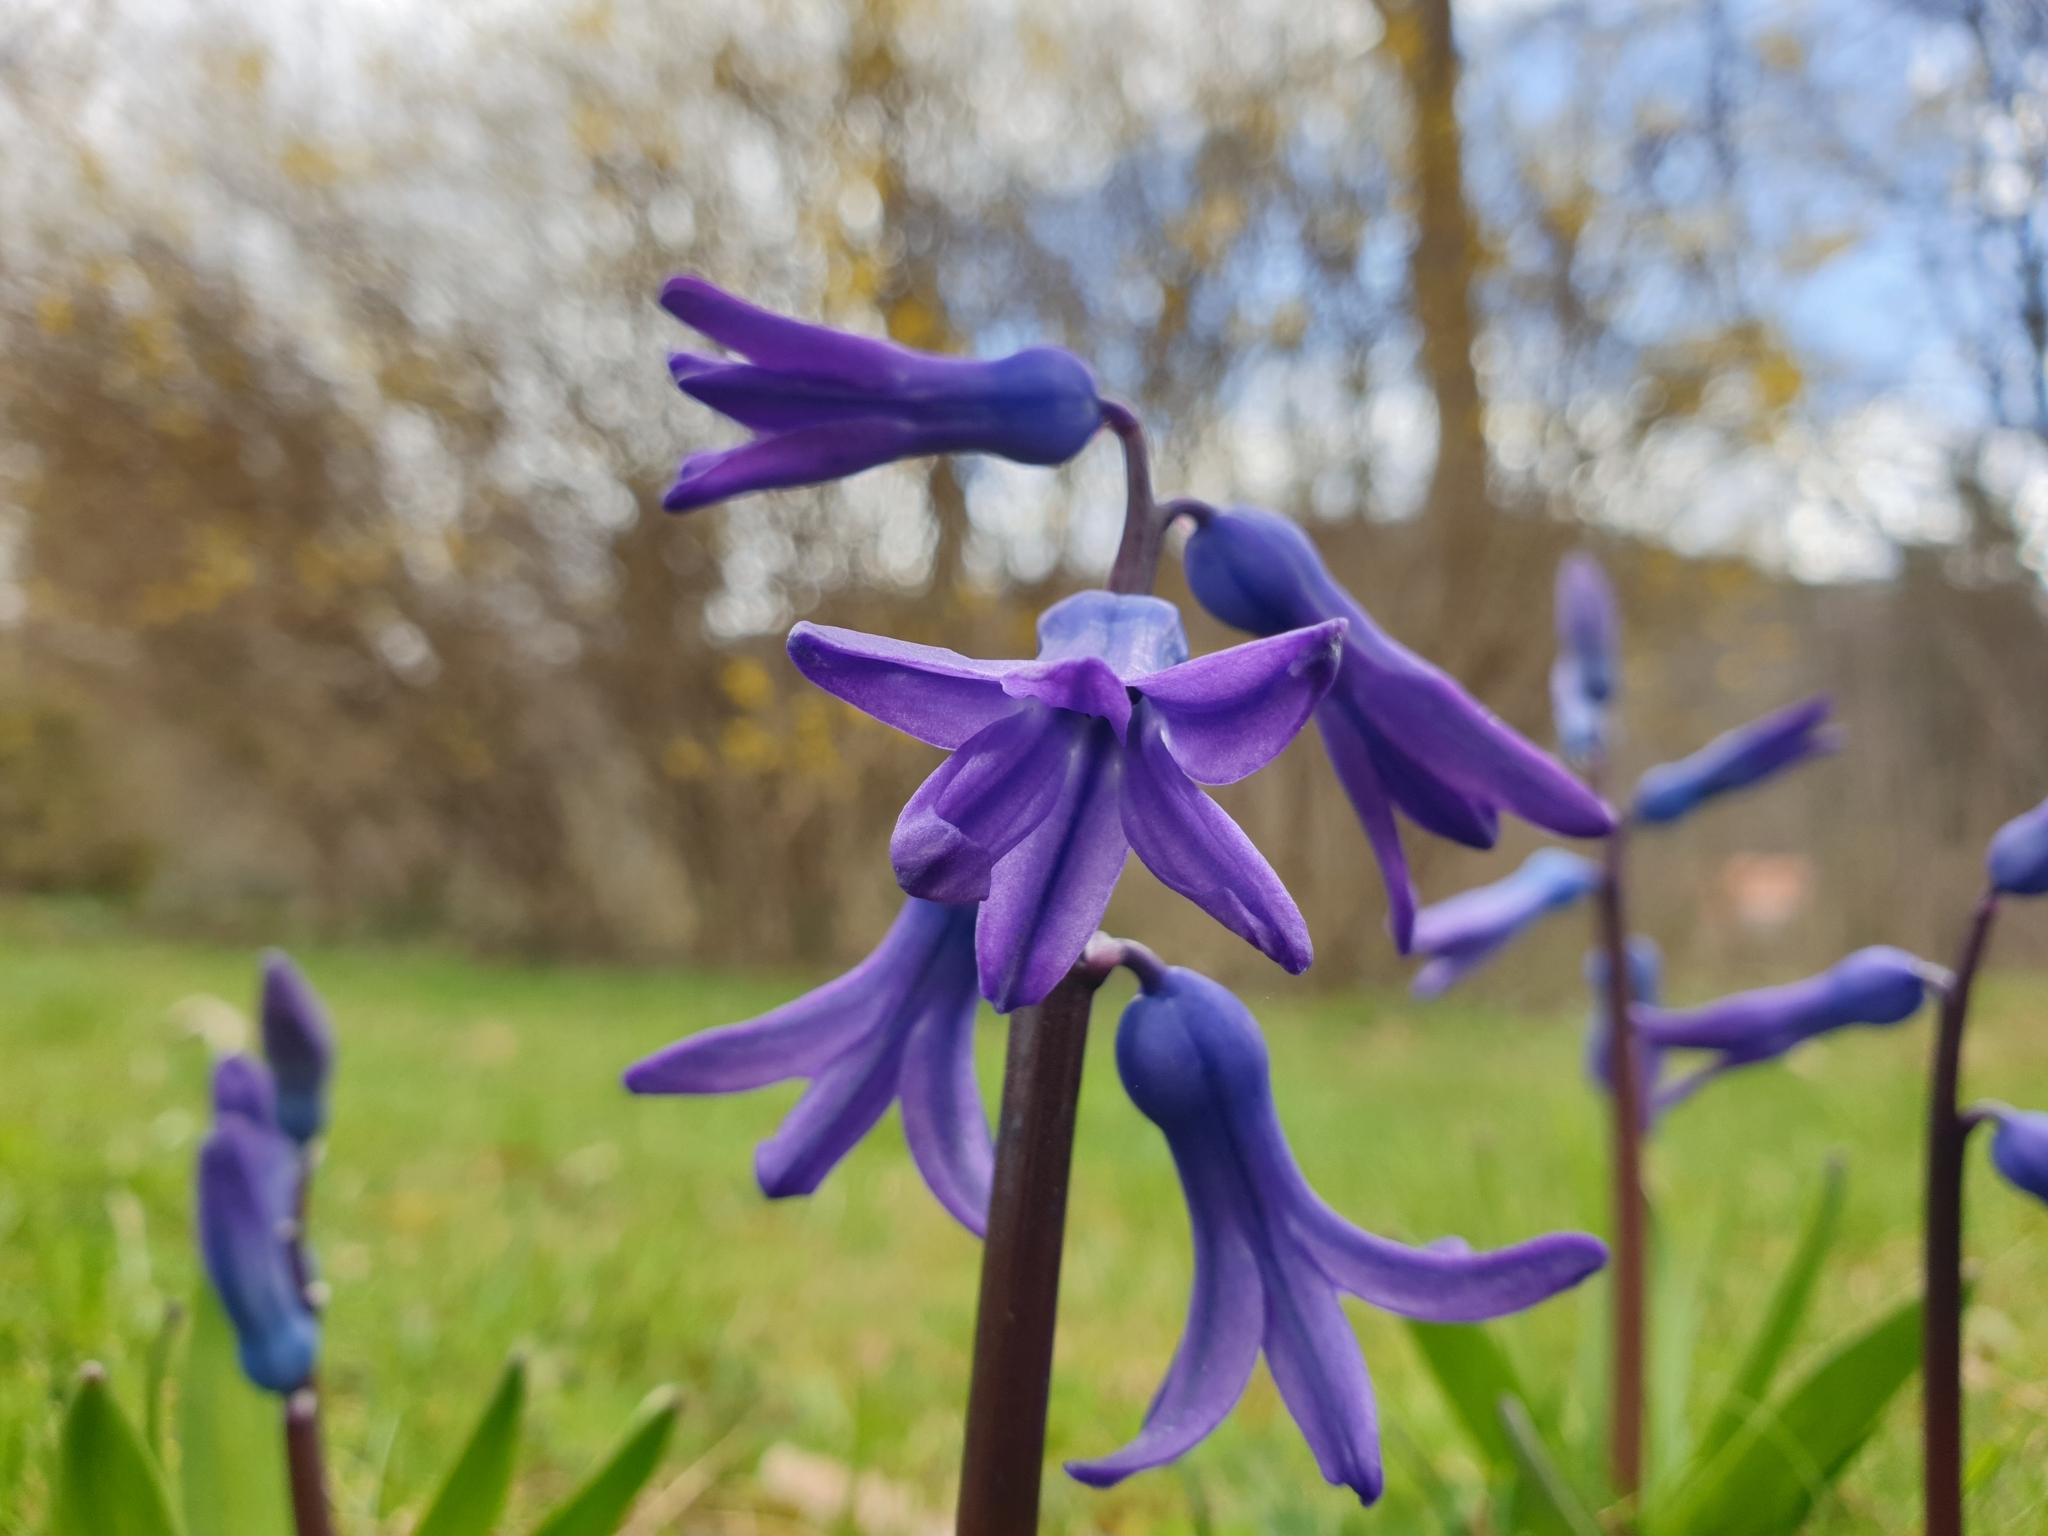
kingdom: Plantae
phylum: Tracheophyta
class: Liliopsida
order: Asparagales
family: Asparagaceae
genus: Hyacinthus
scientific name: Hyacinthus orientalis
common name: Hyacinth
